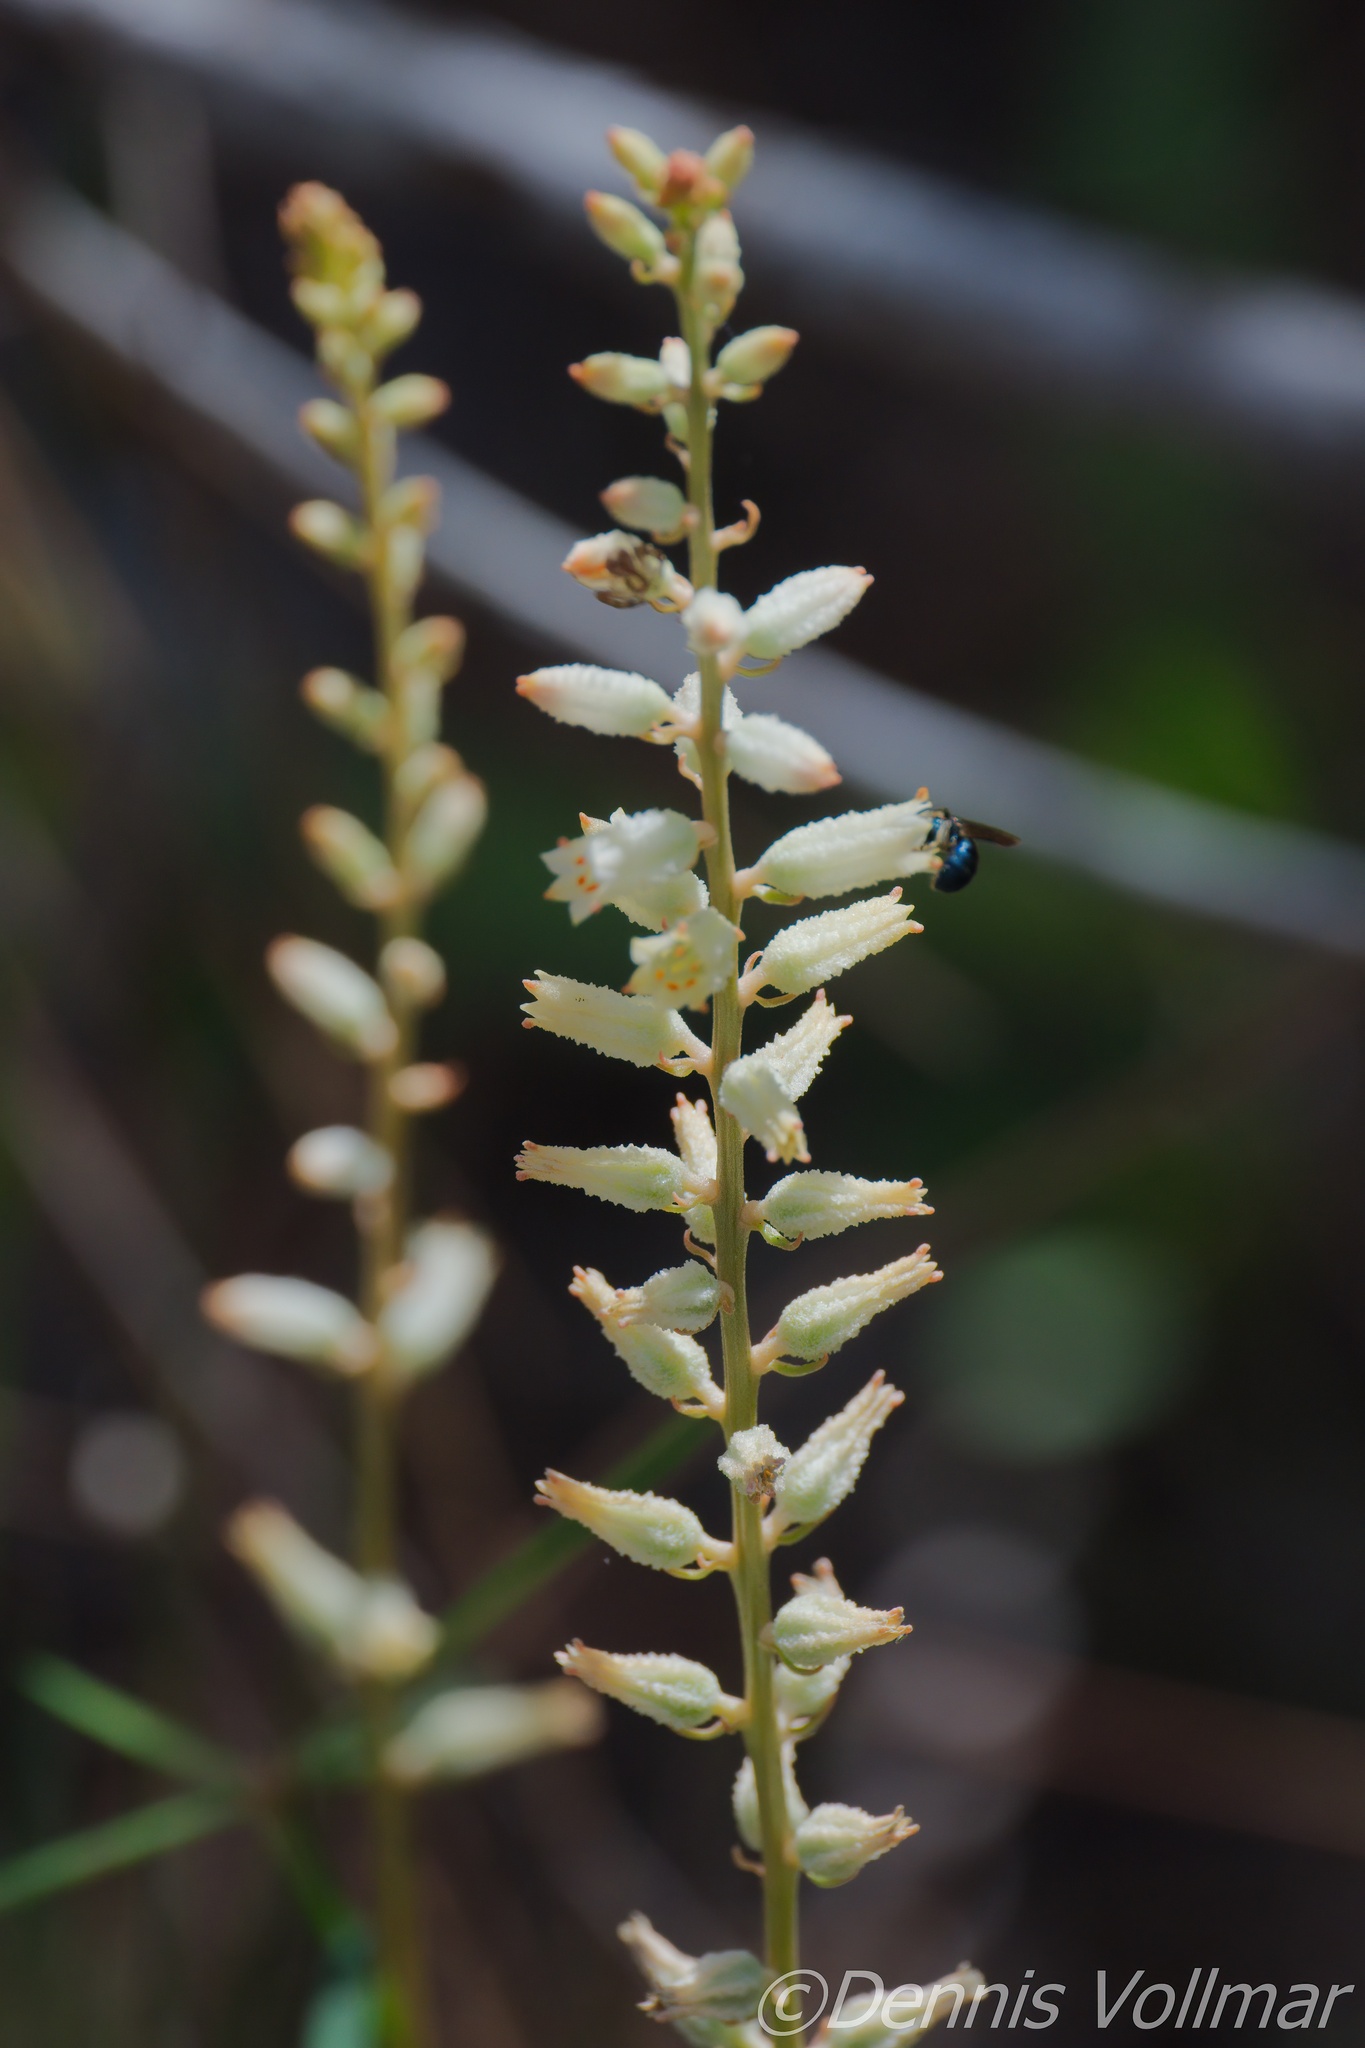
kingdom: Plantae
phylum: Tracheophyta
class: Liliopsida
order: Dioscoreales
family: Nartheciaceae
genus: Aletris
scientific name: Aletris bracteata
